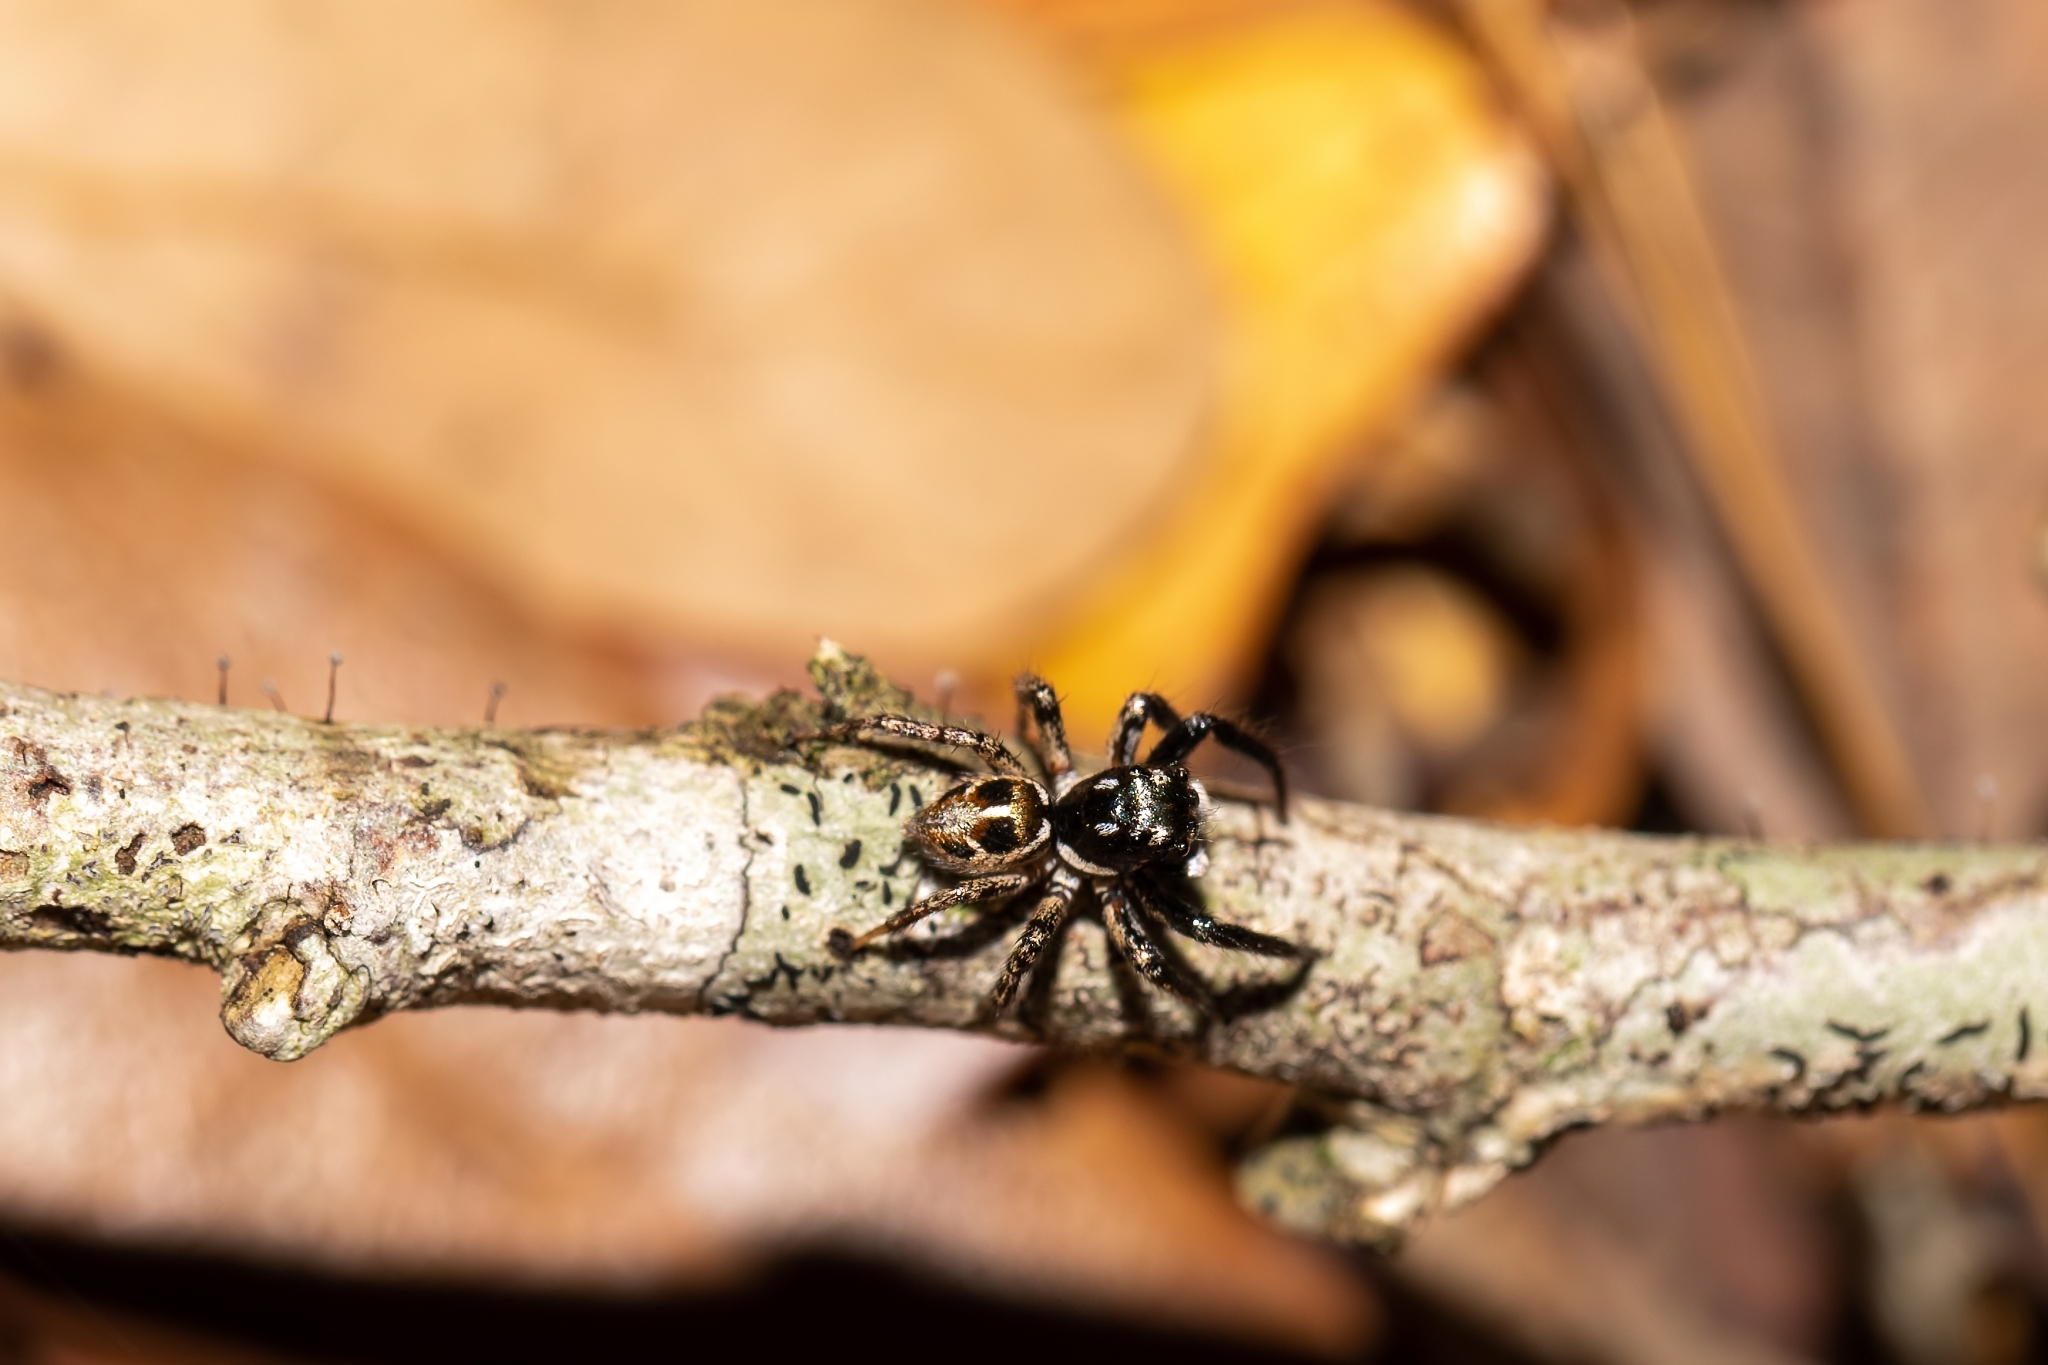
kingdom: Animalia
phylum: Arthropoda
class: Arachnida
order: Araneae
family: Salticidae
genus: Anasaitis
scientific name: Anasaitis canosa
